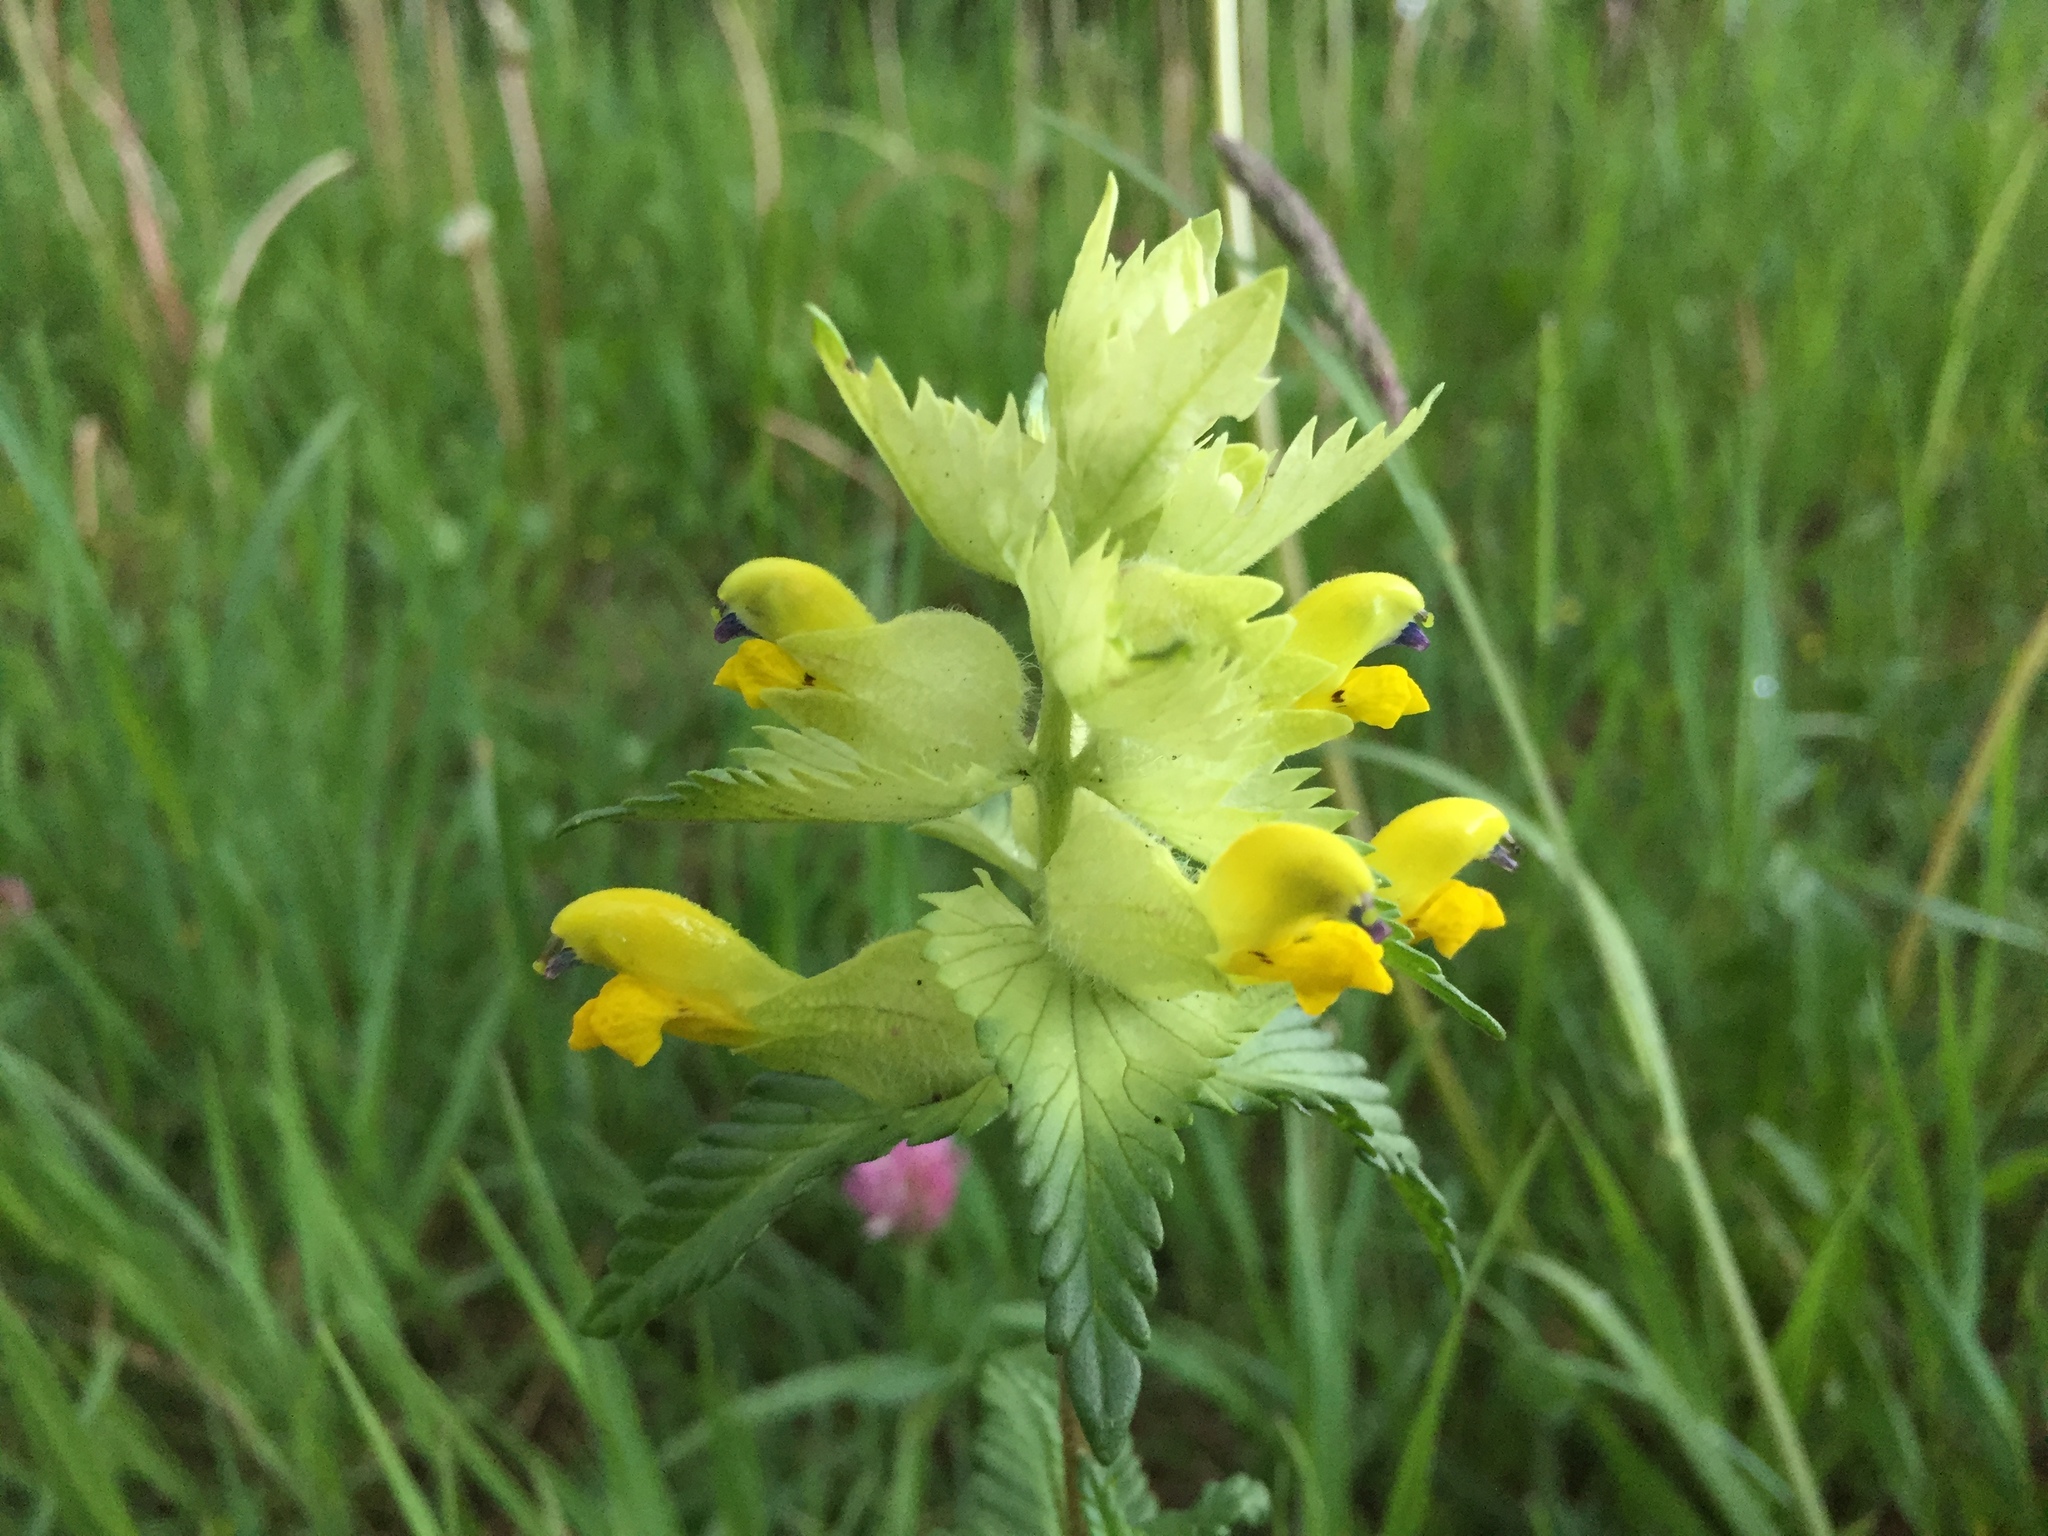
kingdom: Plantae
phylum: Tracheophyta
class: Magnoliopsida
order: Lamiales
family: Orobanchaceae
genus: Rhinanthus
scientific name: Rhinanthus alectorolophus
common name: Greater yellow-rattle
